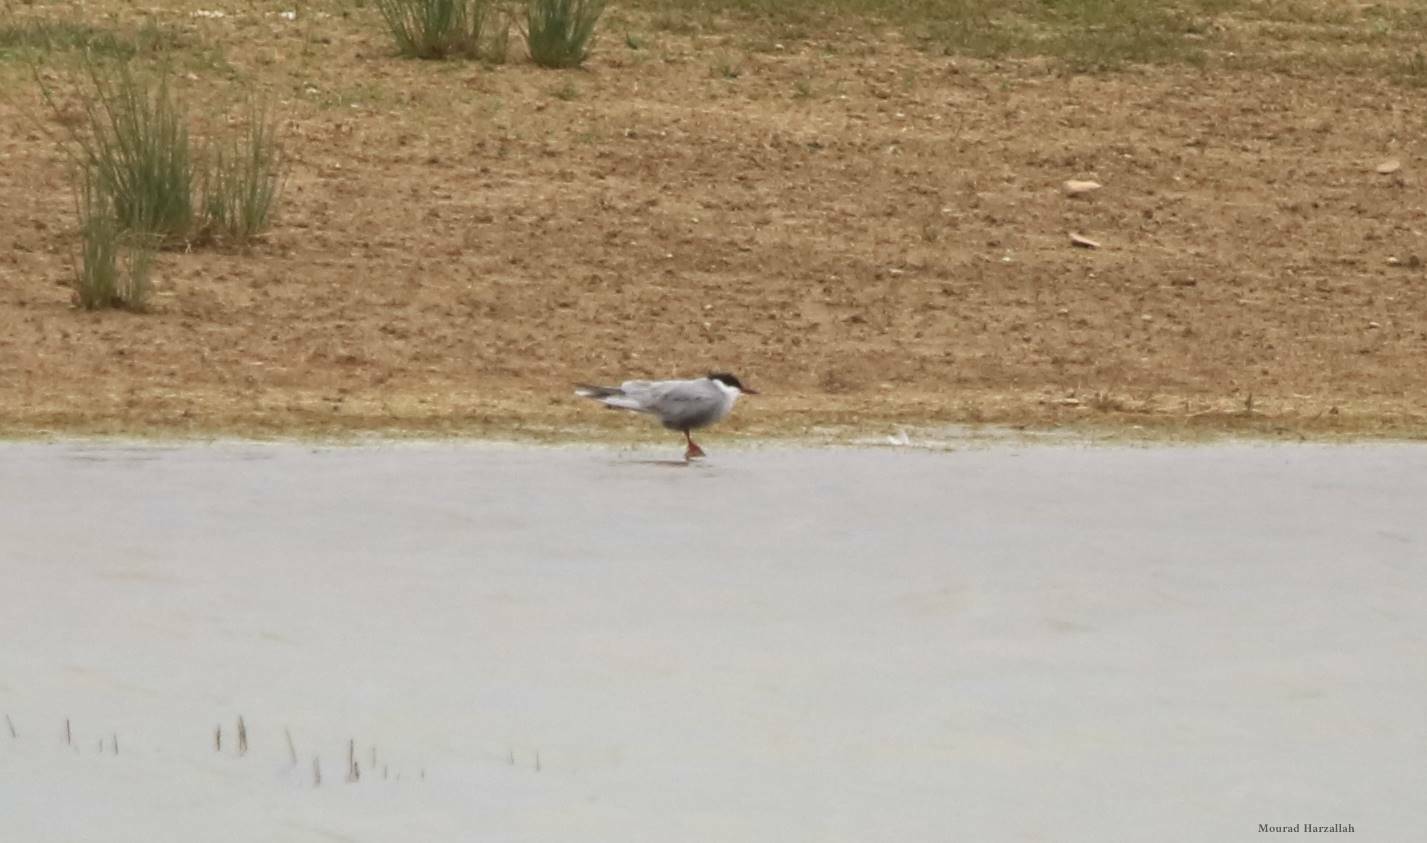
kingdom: Animalia
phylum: Chordata
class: Aves
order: Charadriiformes
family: Laridae
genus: Chlidonias
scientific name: Chlidonias hybrida
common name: Whiskered tern
